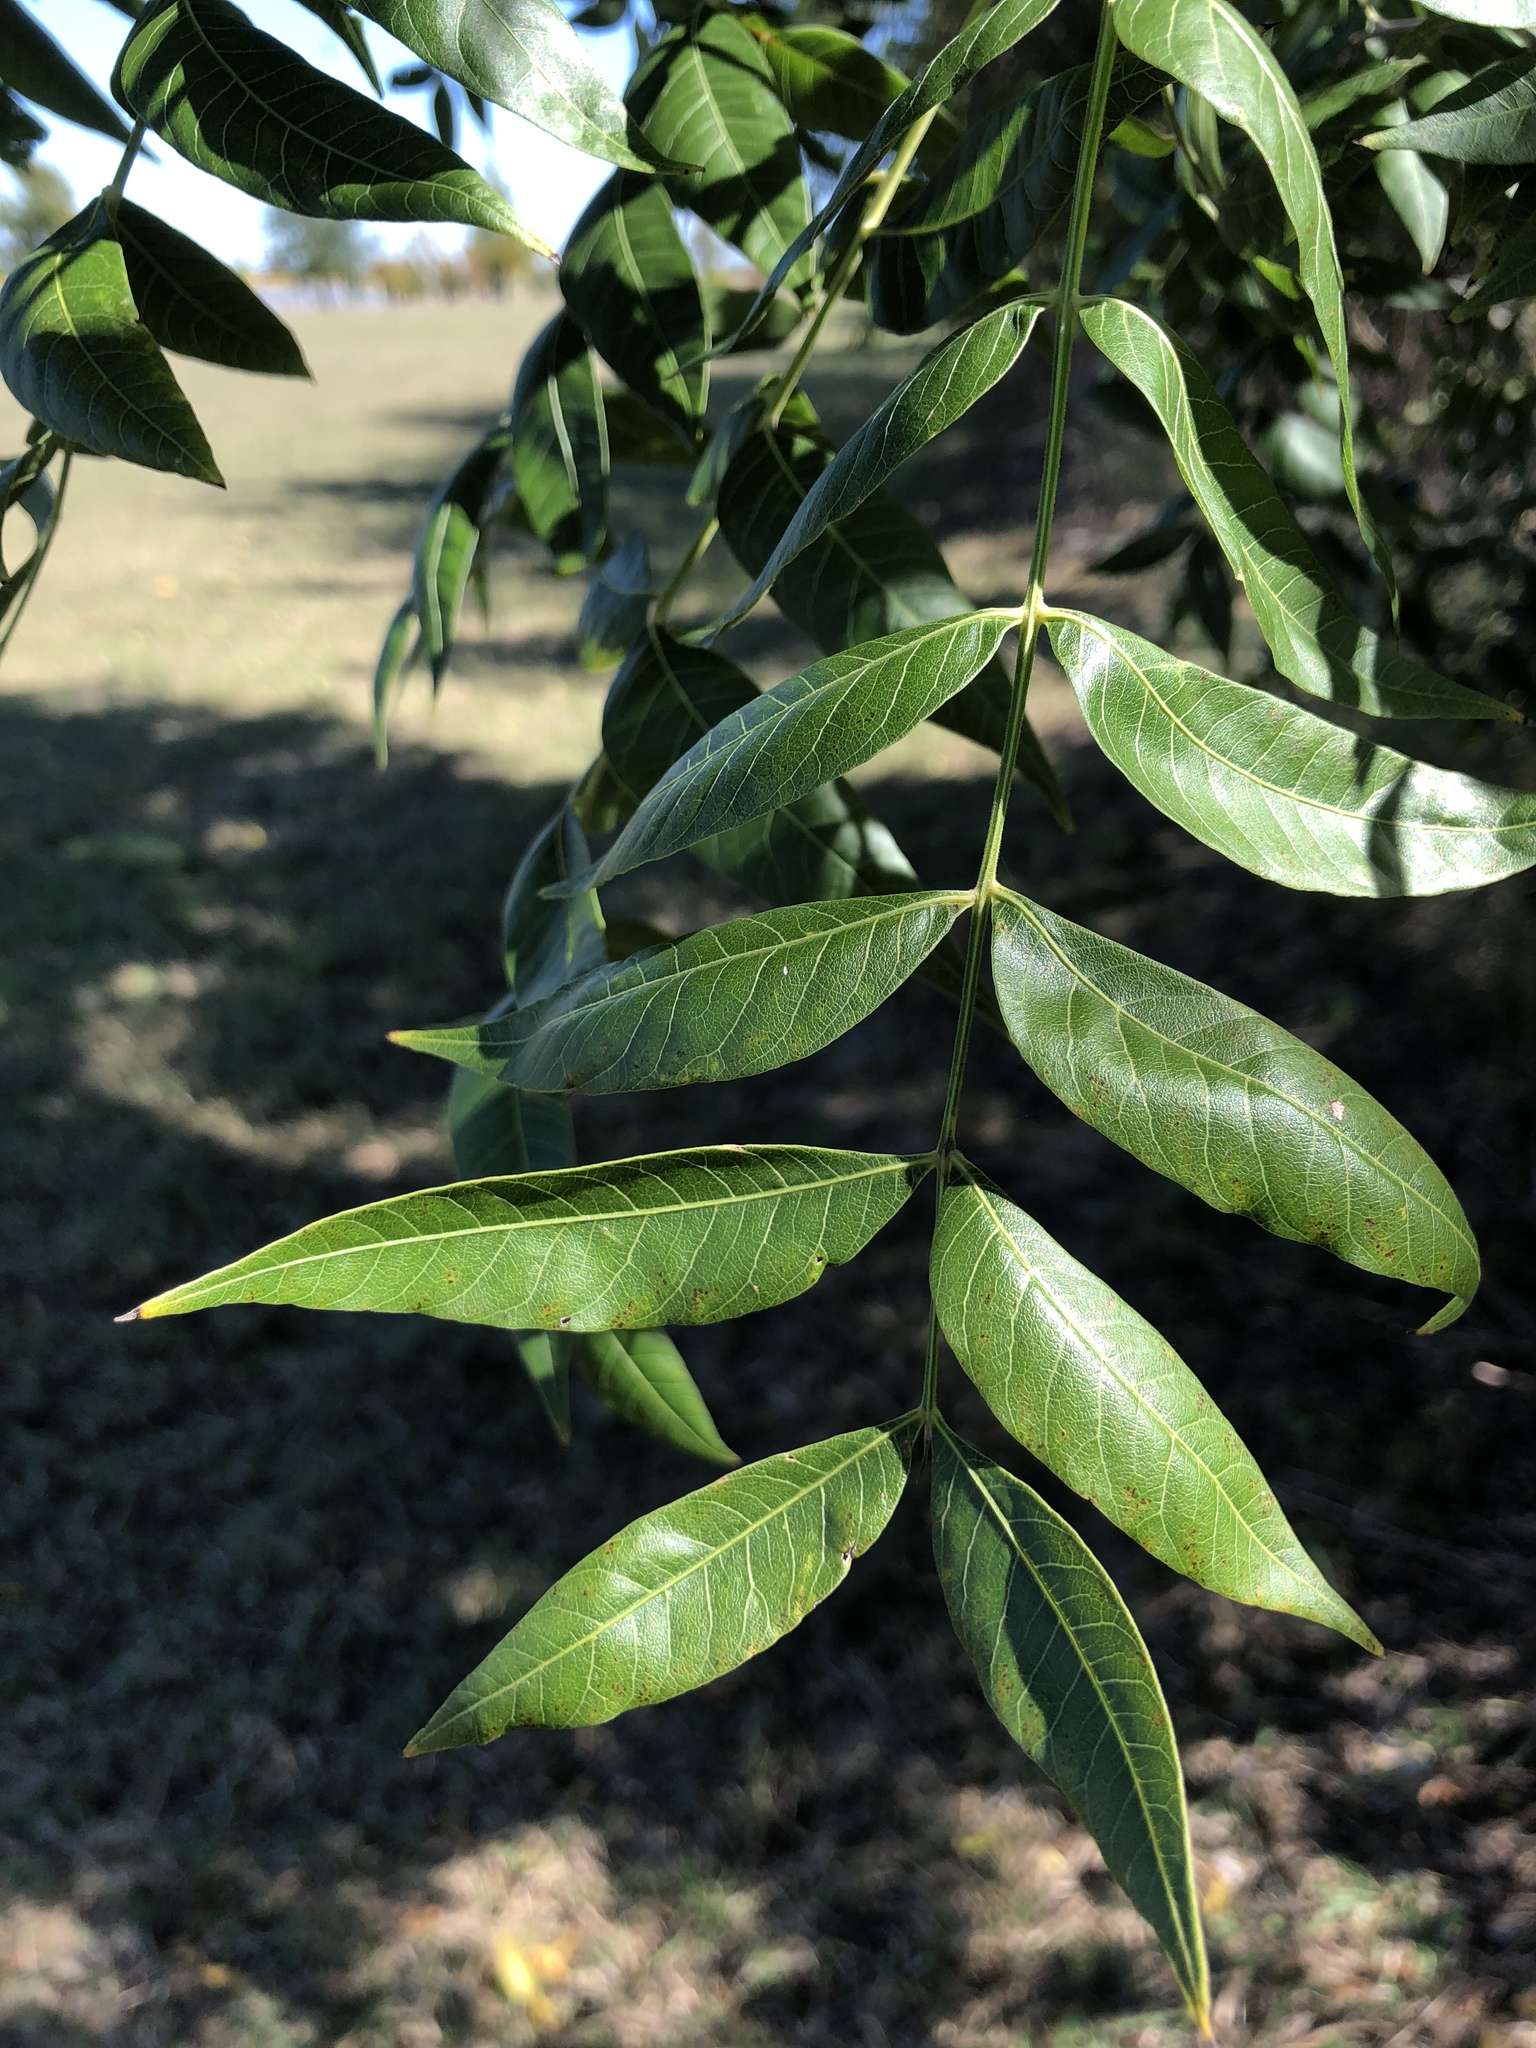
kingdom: Plantae
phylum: Tracheophyta
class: Magnoliopsida
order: Sapindales
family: Anacardiaceae
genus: Pistacia
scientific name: Pistacia chinensis
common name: Chinese pistache
